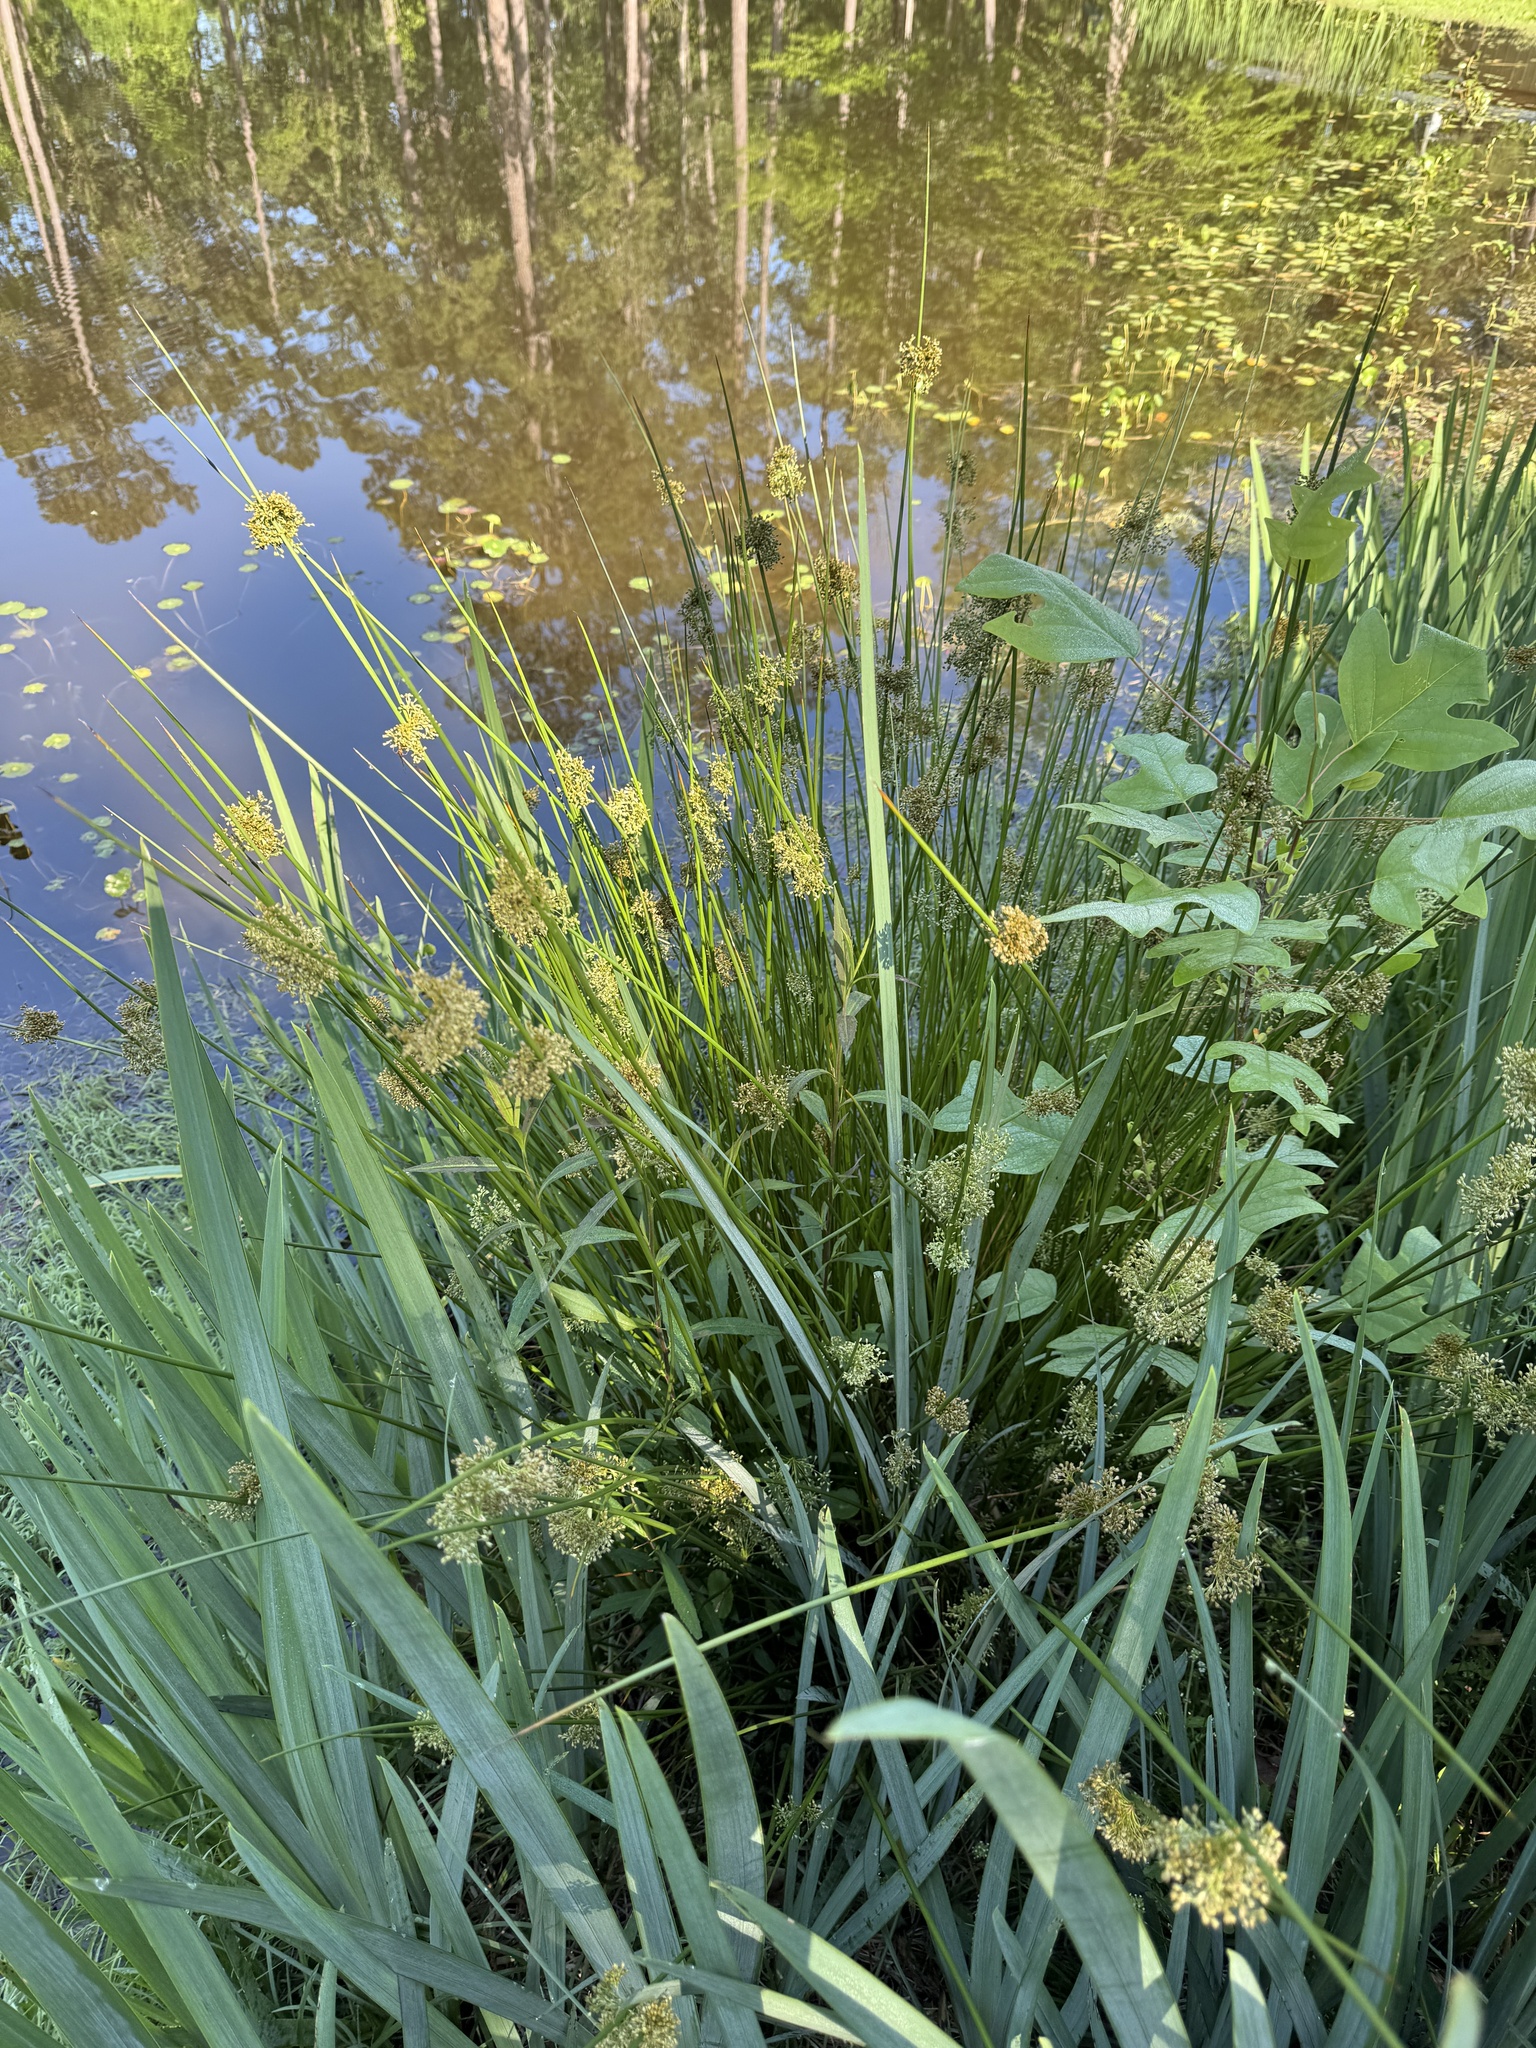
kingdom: Plantae
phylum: Tracheophyta
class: Liliopsida
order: Poales
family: Juncaceae
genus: Juncus
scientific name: Juncus effusus
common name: Soft rush
